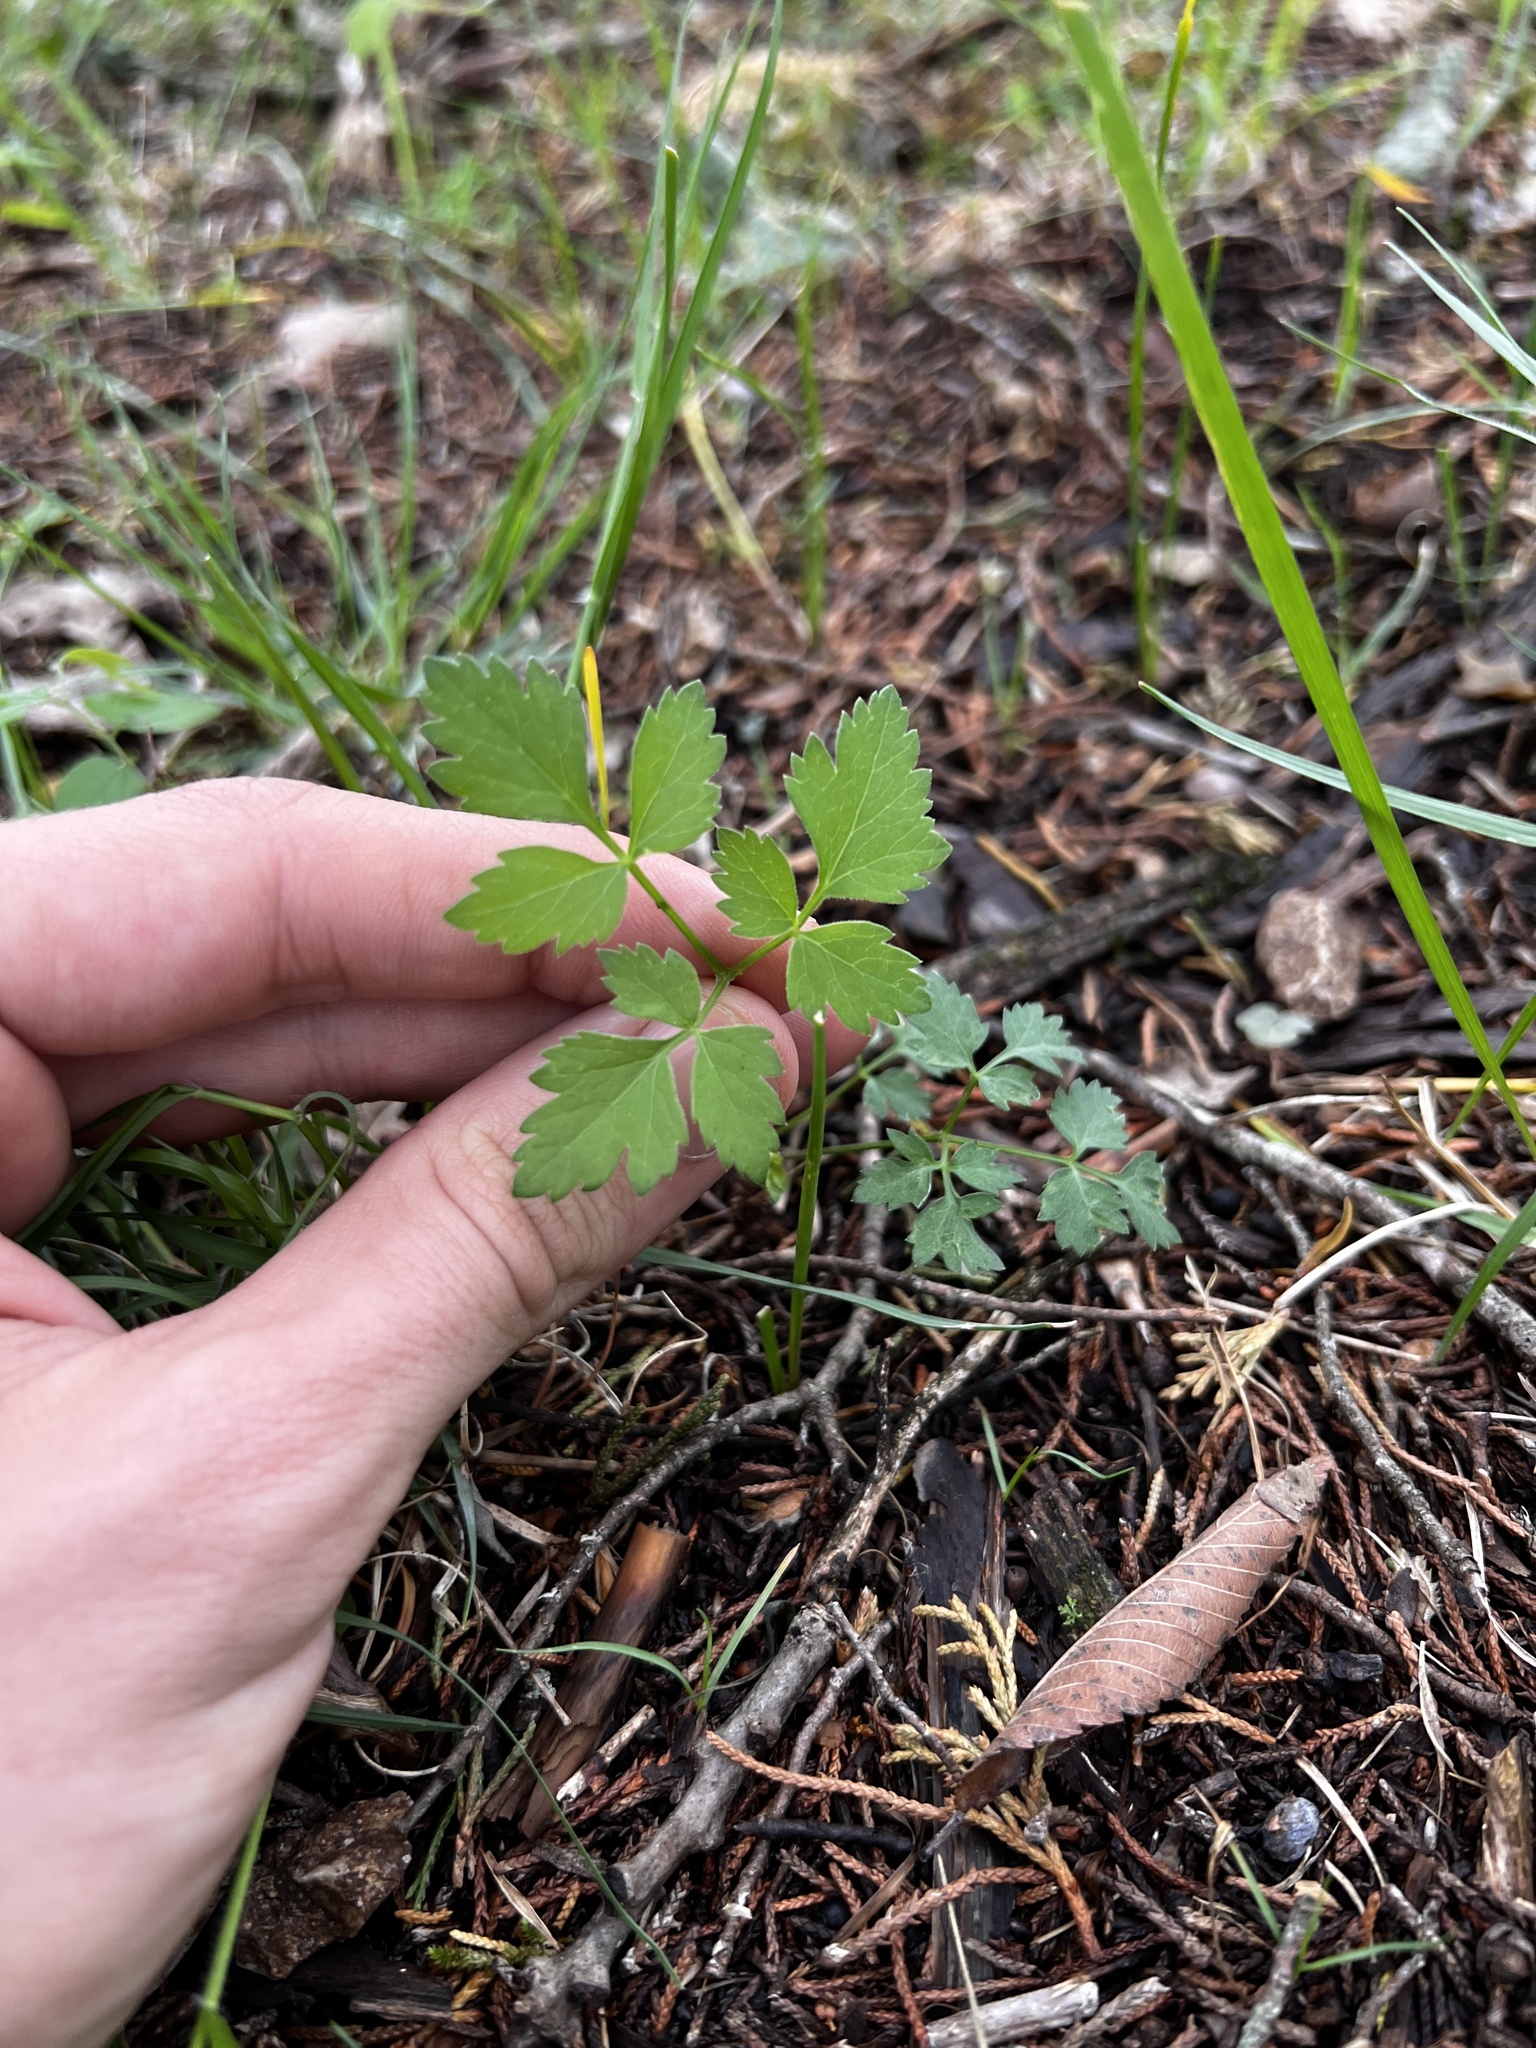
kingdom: Plantae
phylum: Tracheophyta
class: Magnoliopsida
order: Apiales
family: Apiaceae
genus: Thaspium
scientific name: Thaspium barbinode
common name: Bearded meadow-parsnip
